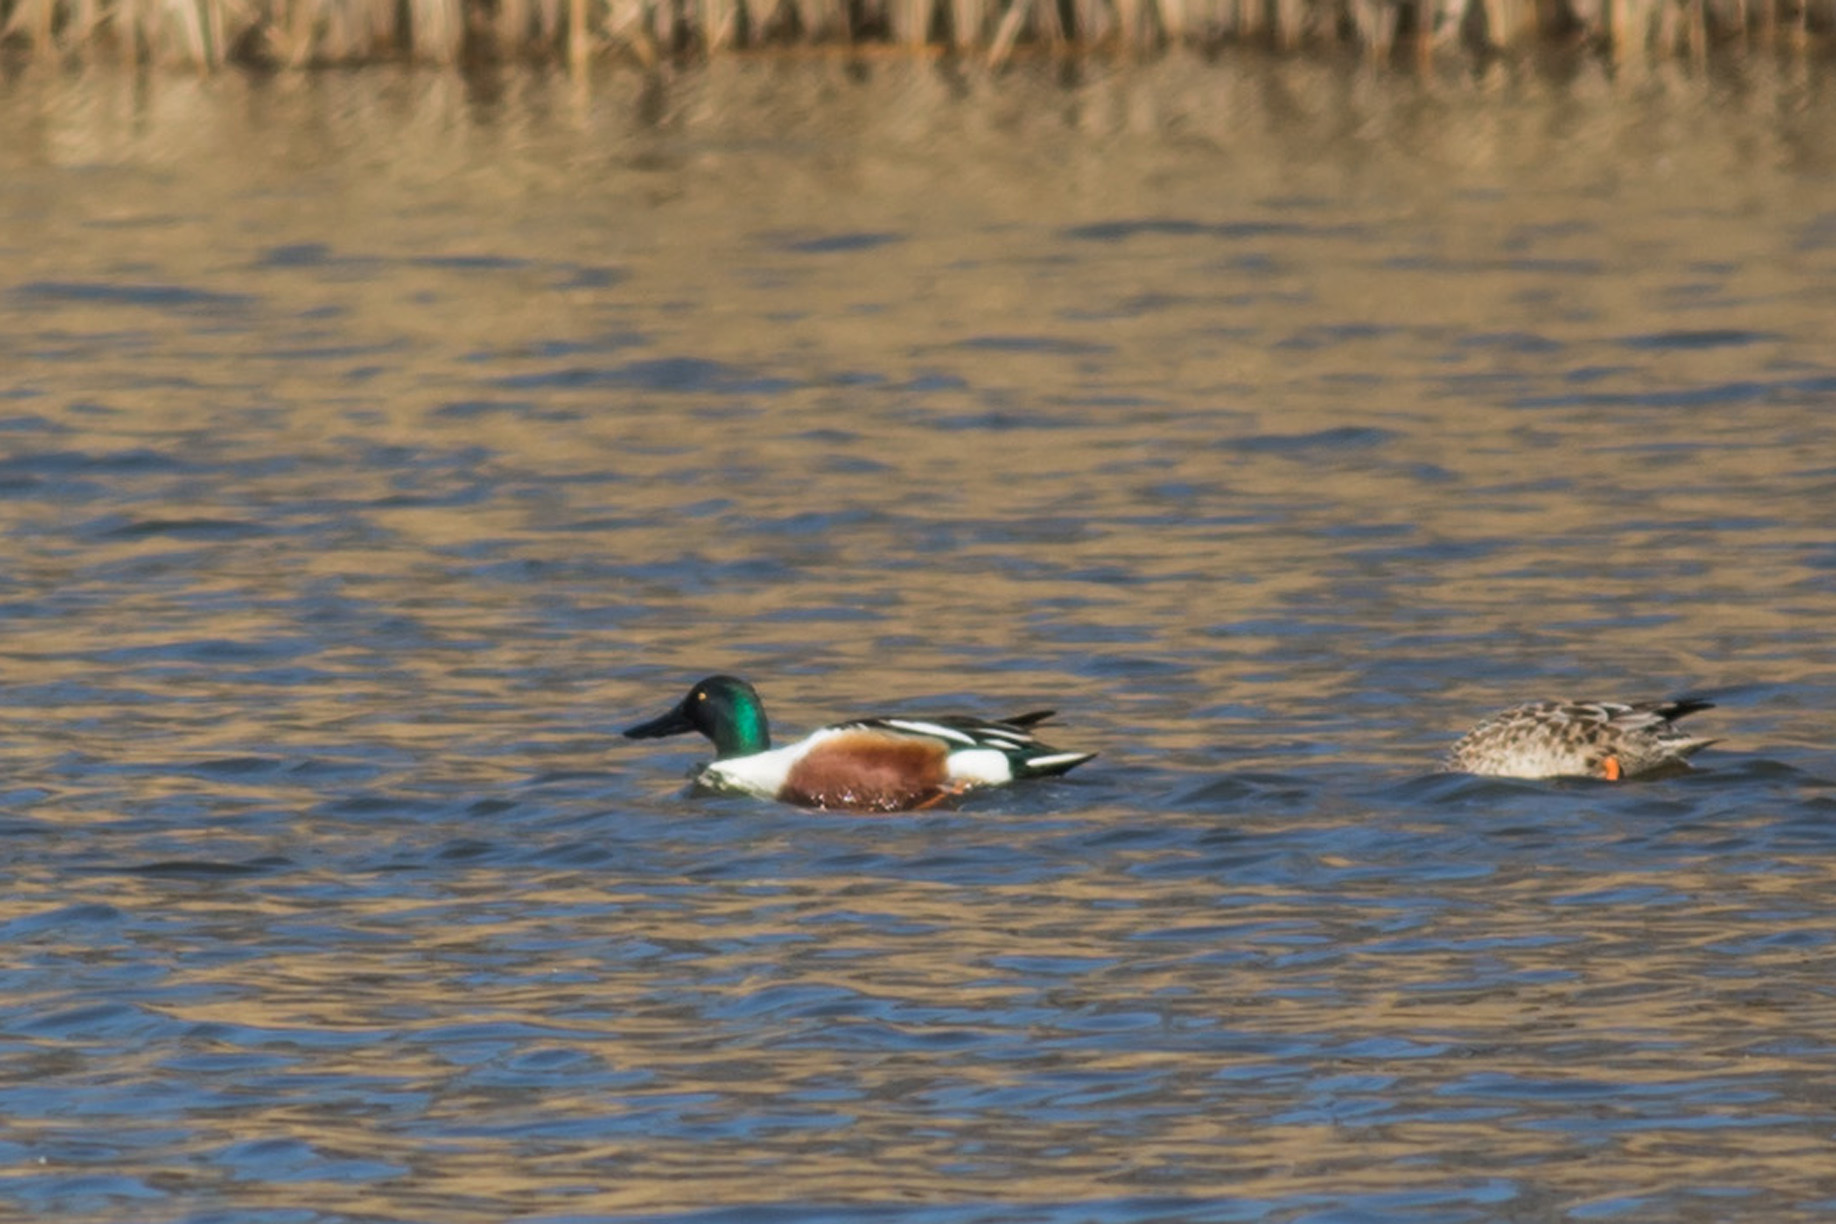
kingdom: Animalia
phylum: Chordata
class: Aves
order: Anseriformes
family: Anatidae
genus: Spatula
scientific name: Spatula clypeata
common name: Northern shoveler
